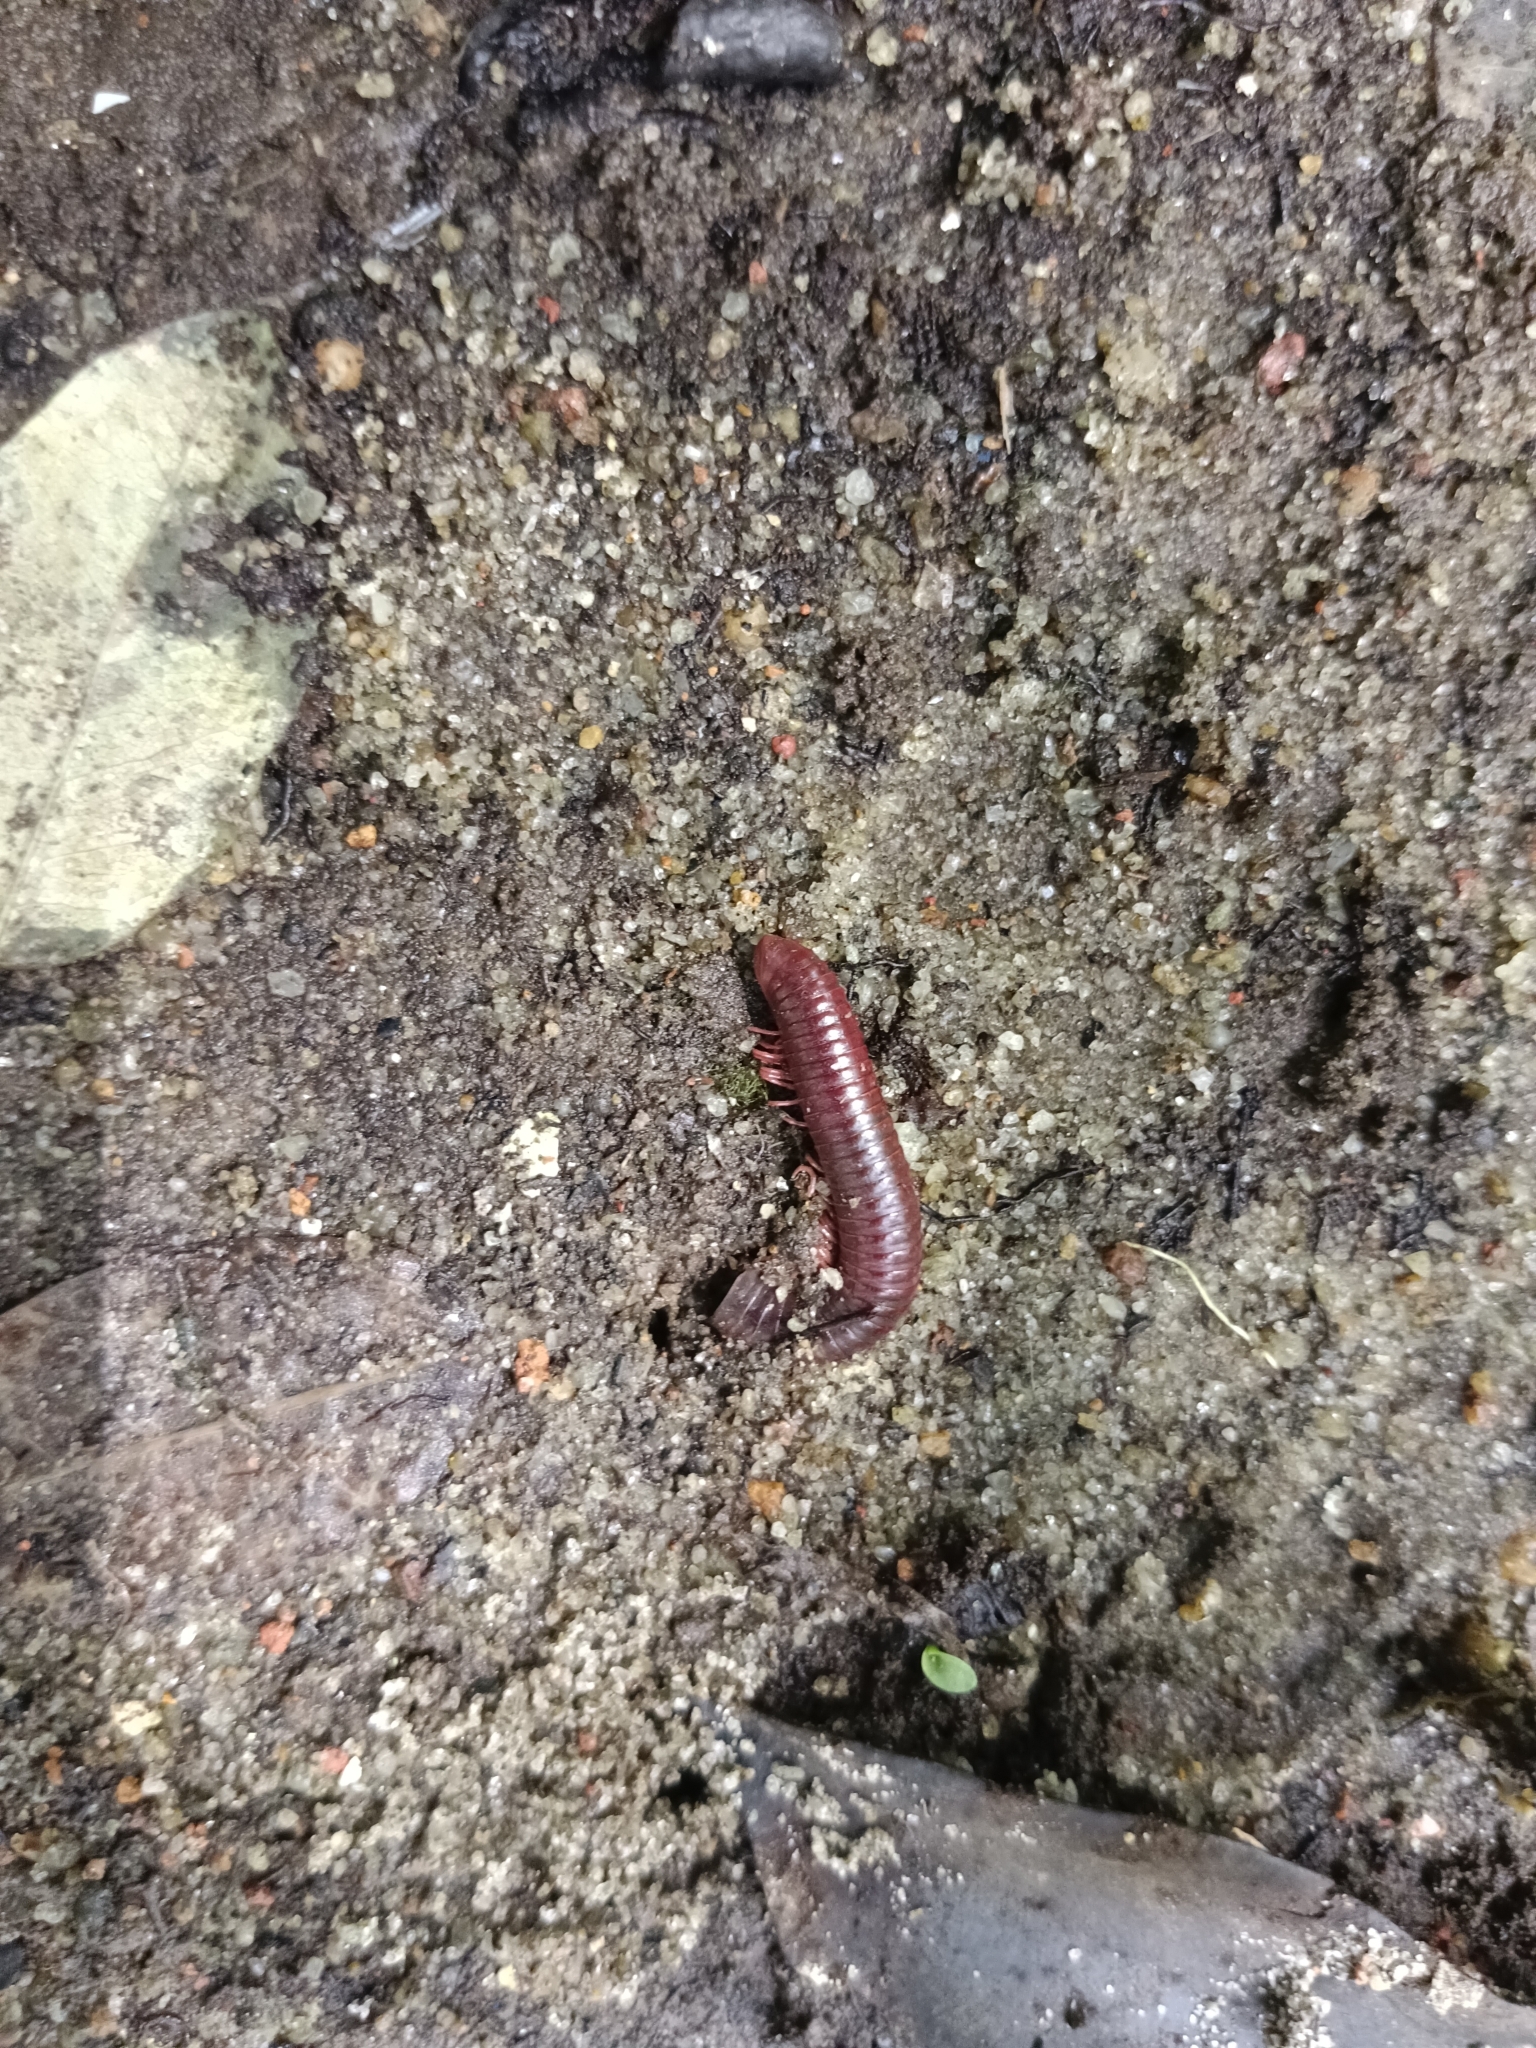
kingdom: Animalia
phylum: Arthropoda
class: Diplopoda
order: Spirobolida
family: Pachybolidae
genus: Trigoniulus
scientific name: Trigoniulus corallinus
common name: Millipede
